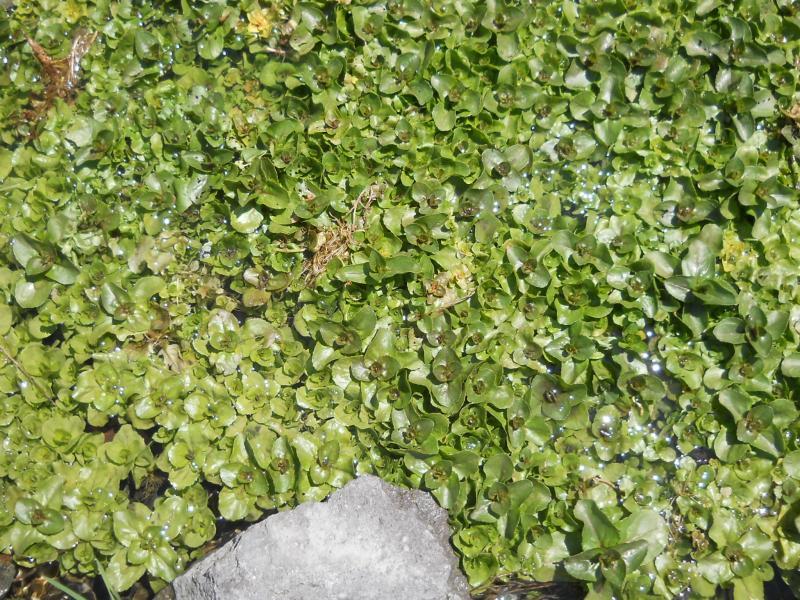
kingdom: Plantae
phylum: Tracheophyta
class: Magnoliopsida
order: Lamiales
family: Plantaginaceae
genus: Veronica
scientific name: Veronica beccabunga
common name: Brooklime
